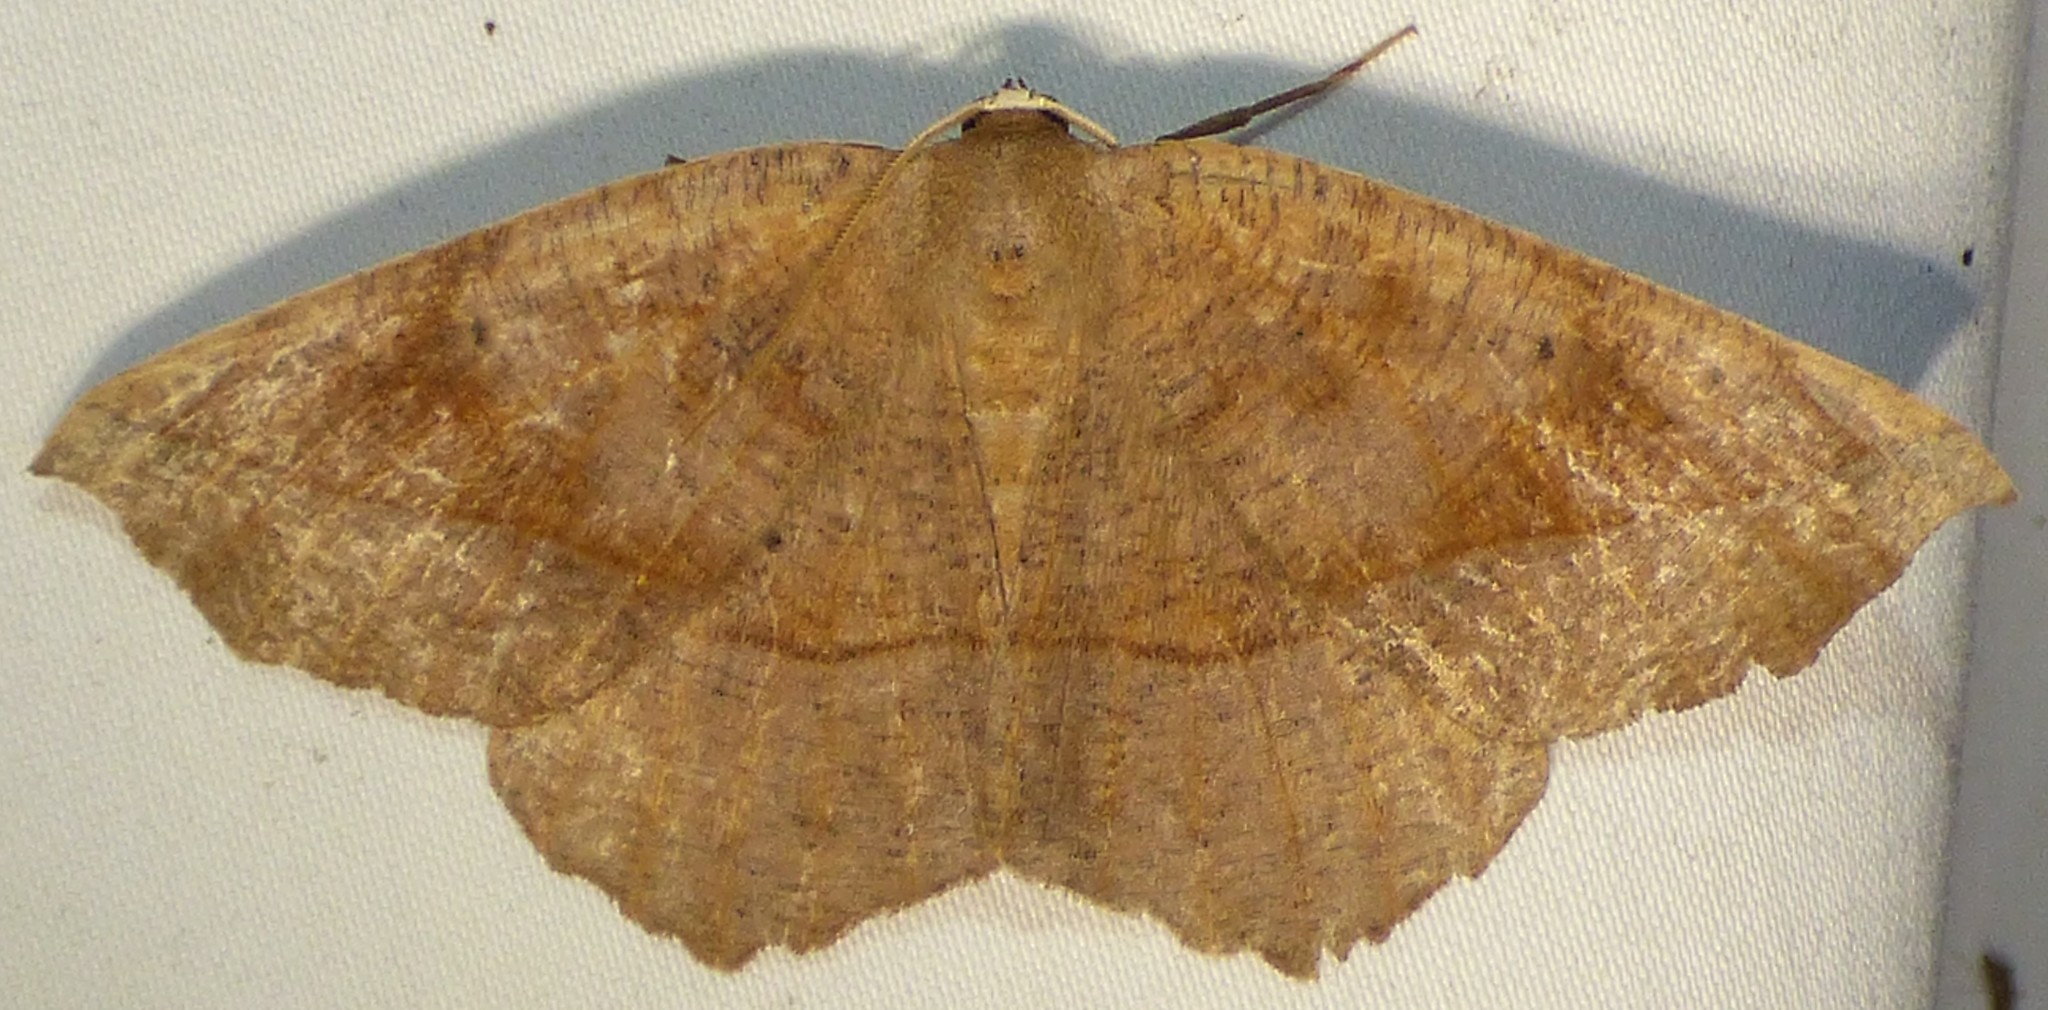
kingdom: Animalia
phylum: Arthropoda
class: Insecta
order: Lepidoptera
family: Geometridae
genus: Eutrapela
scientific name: Eutrapela clemataria
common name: Curved-toothed geometer
